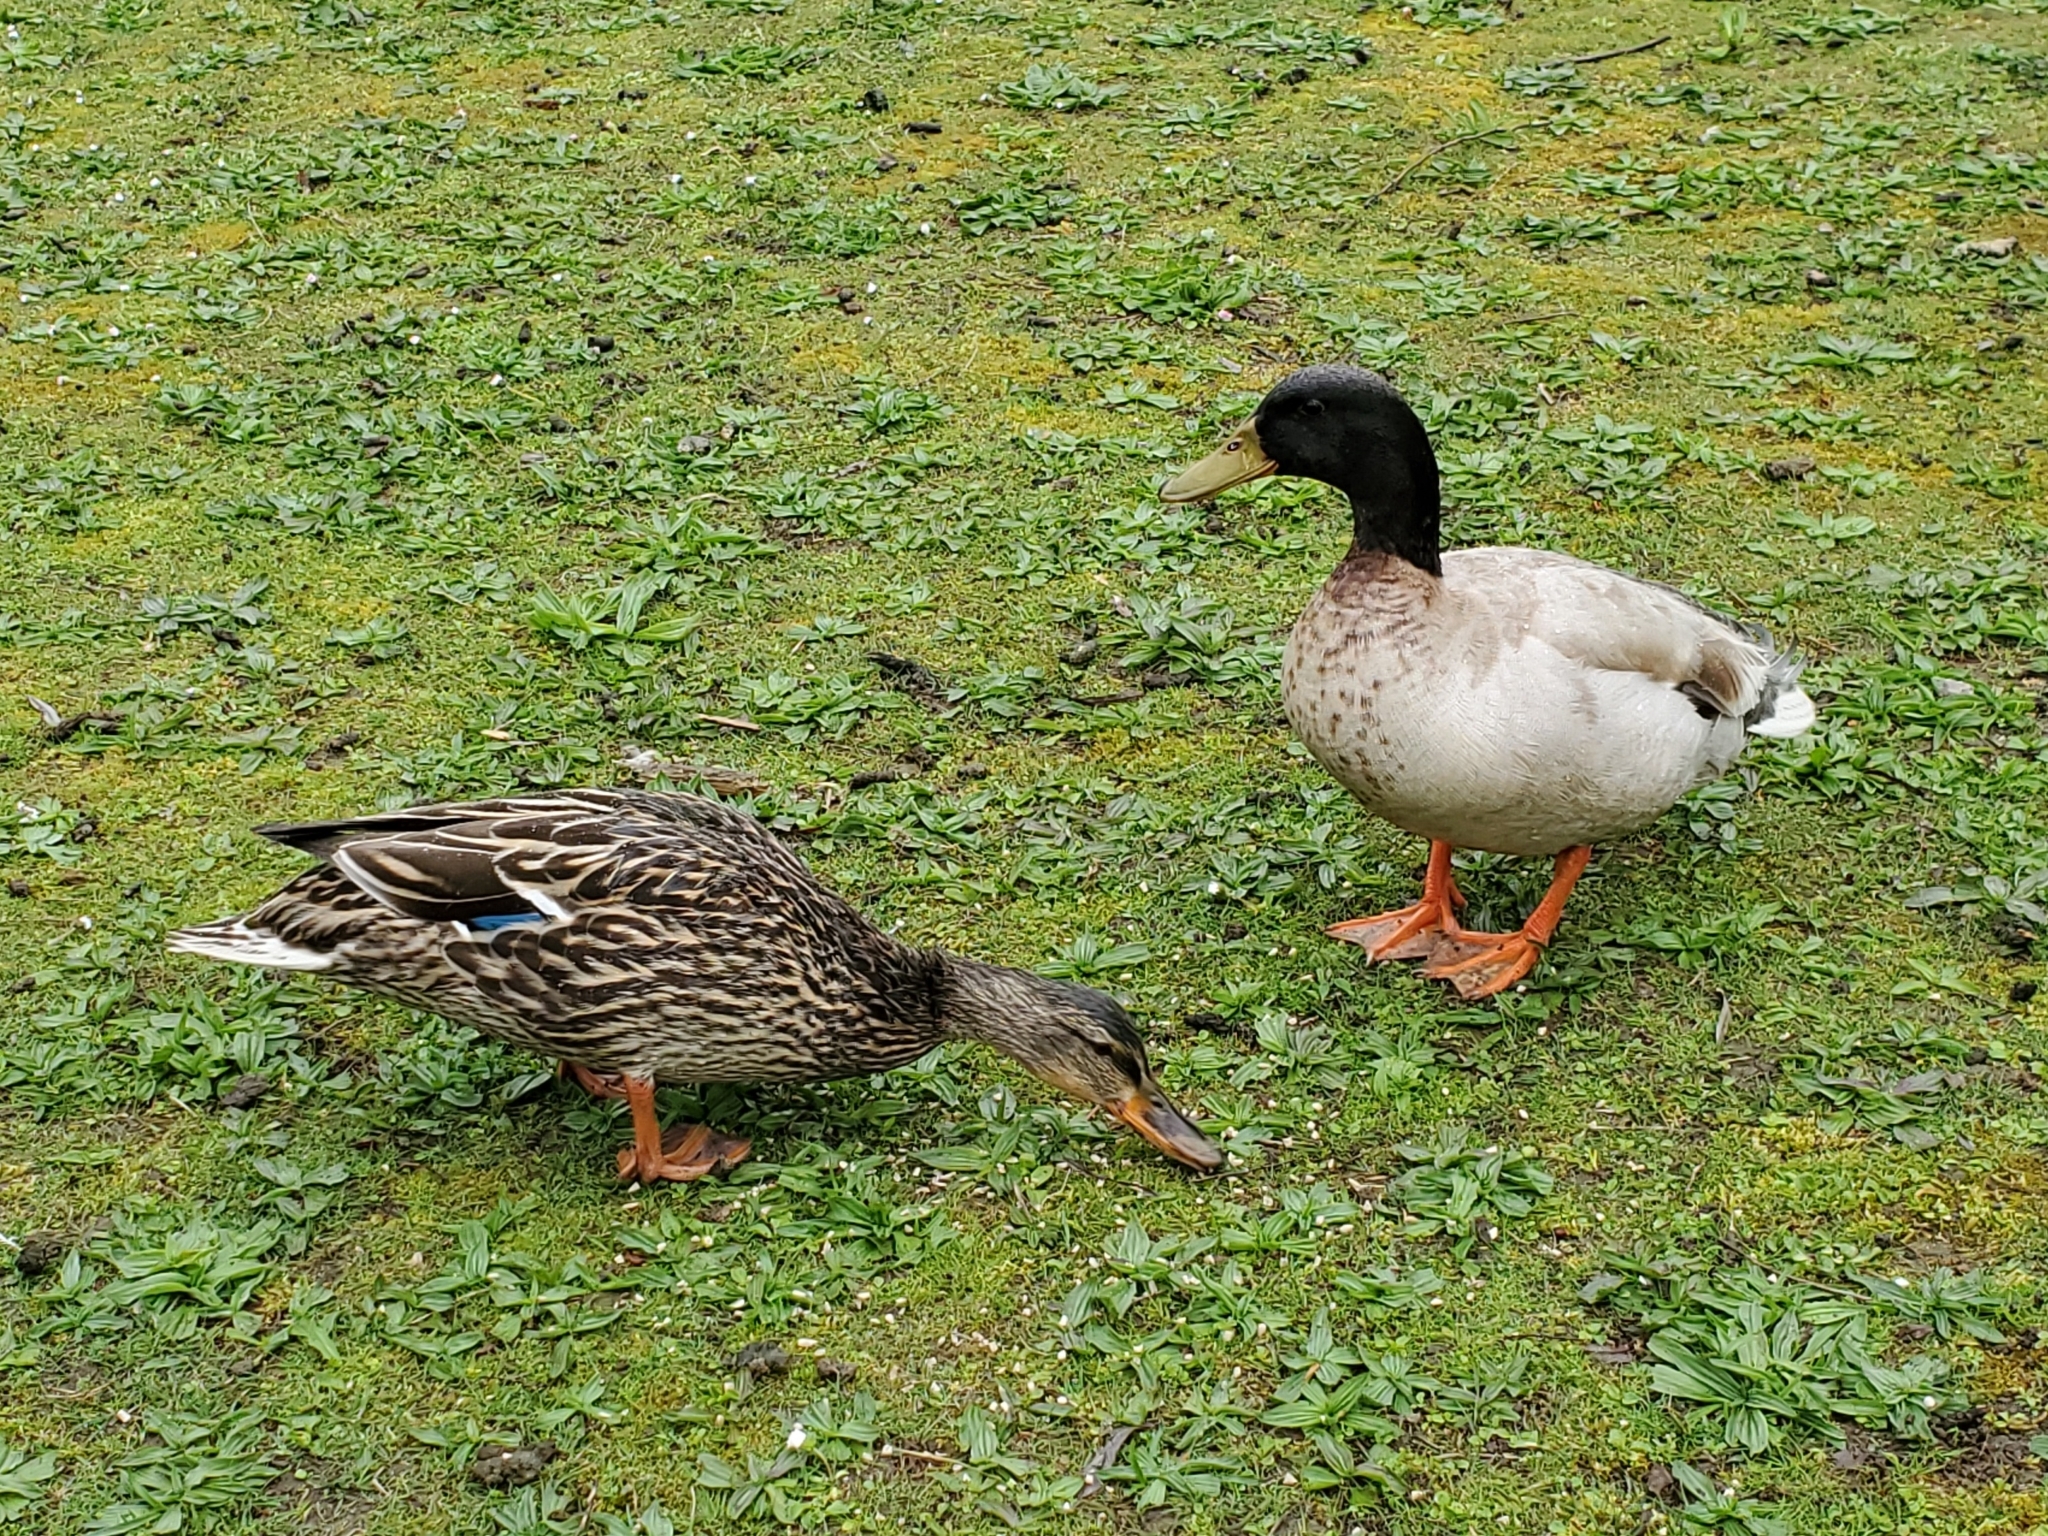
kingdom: Animalia
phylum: Chordata
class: Aves
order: Anseriformes
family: Anatidae
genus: Anas
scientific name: Anas platyrhynchos
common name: Mallard
